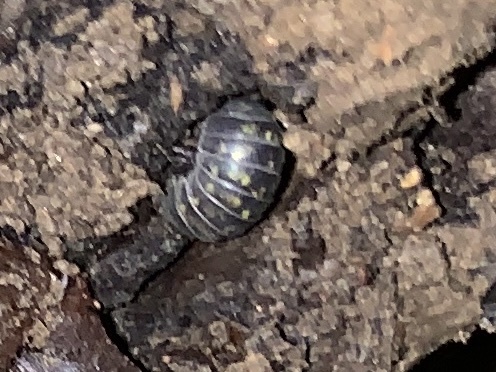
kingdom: Animalia
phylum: Arthropoda
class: Malacostraca
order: Isopoda
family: Armadillidiidae
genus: Armadillidium
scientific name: Armadillidium vulgare
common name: Common pill woodlouse
